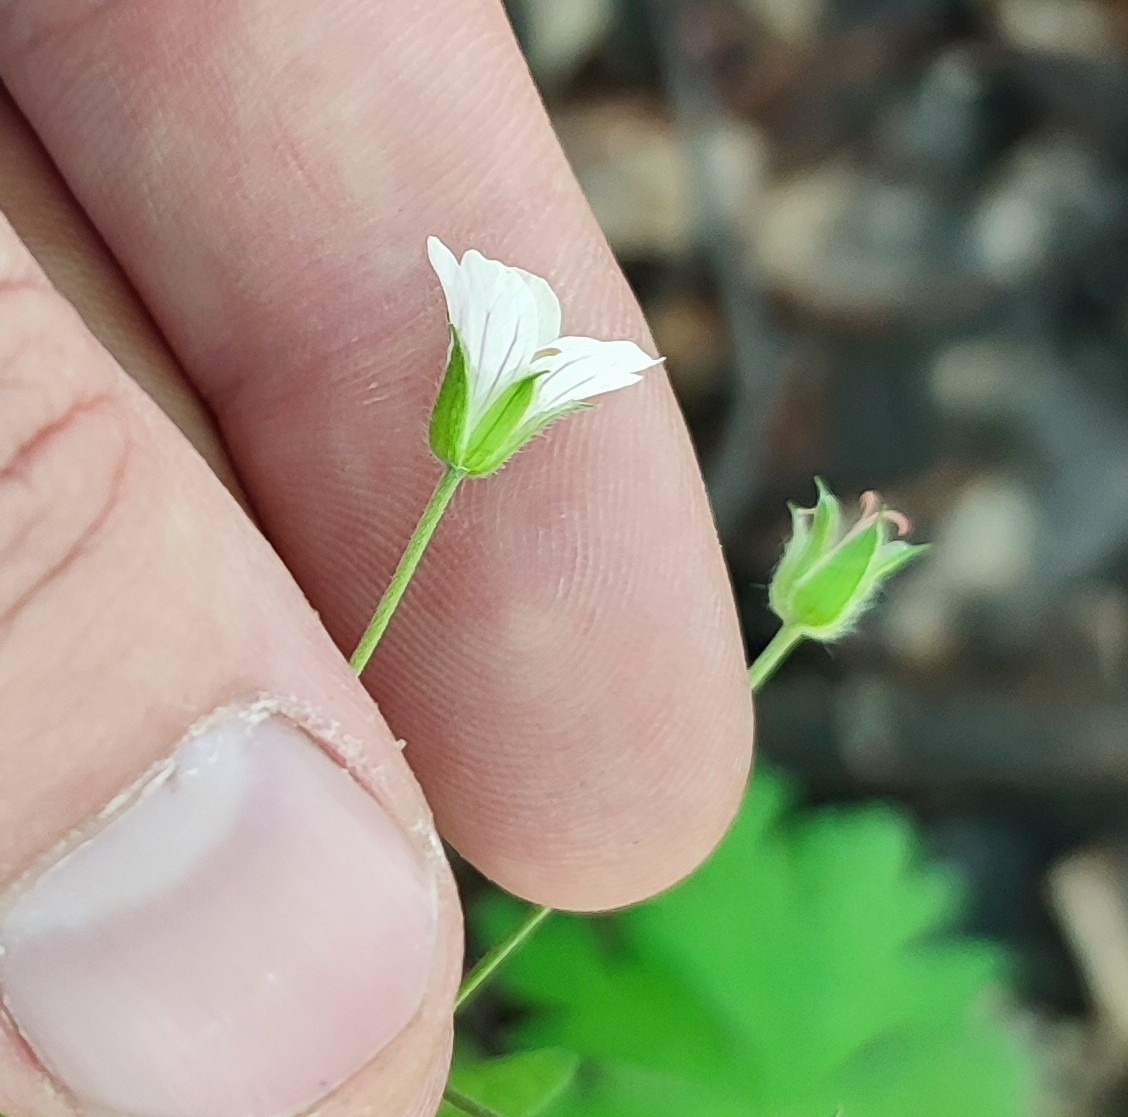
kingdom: Plantae
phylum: Tracheophyta
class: Magnoliopsida
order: Geraniales
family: Geraniaceae
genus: Geranium
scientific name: Geranium pseudosibiricum
